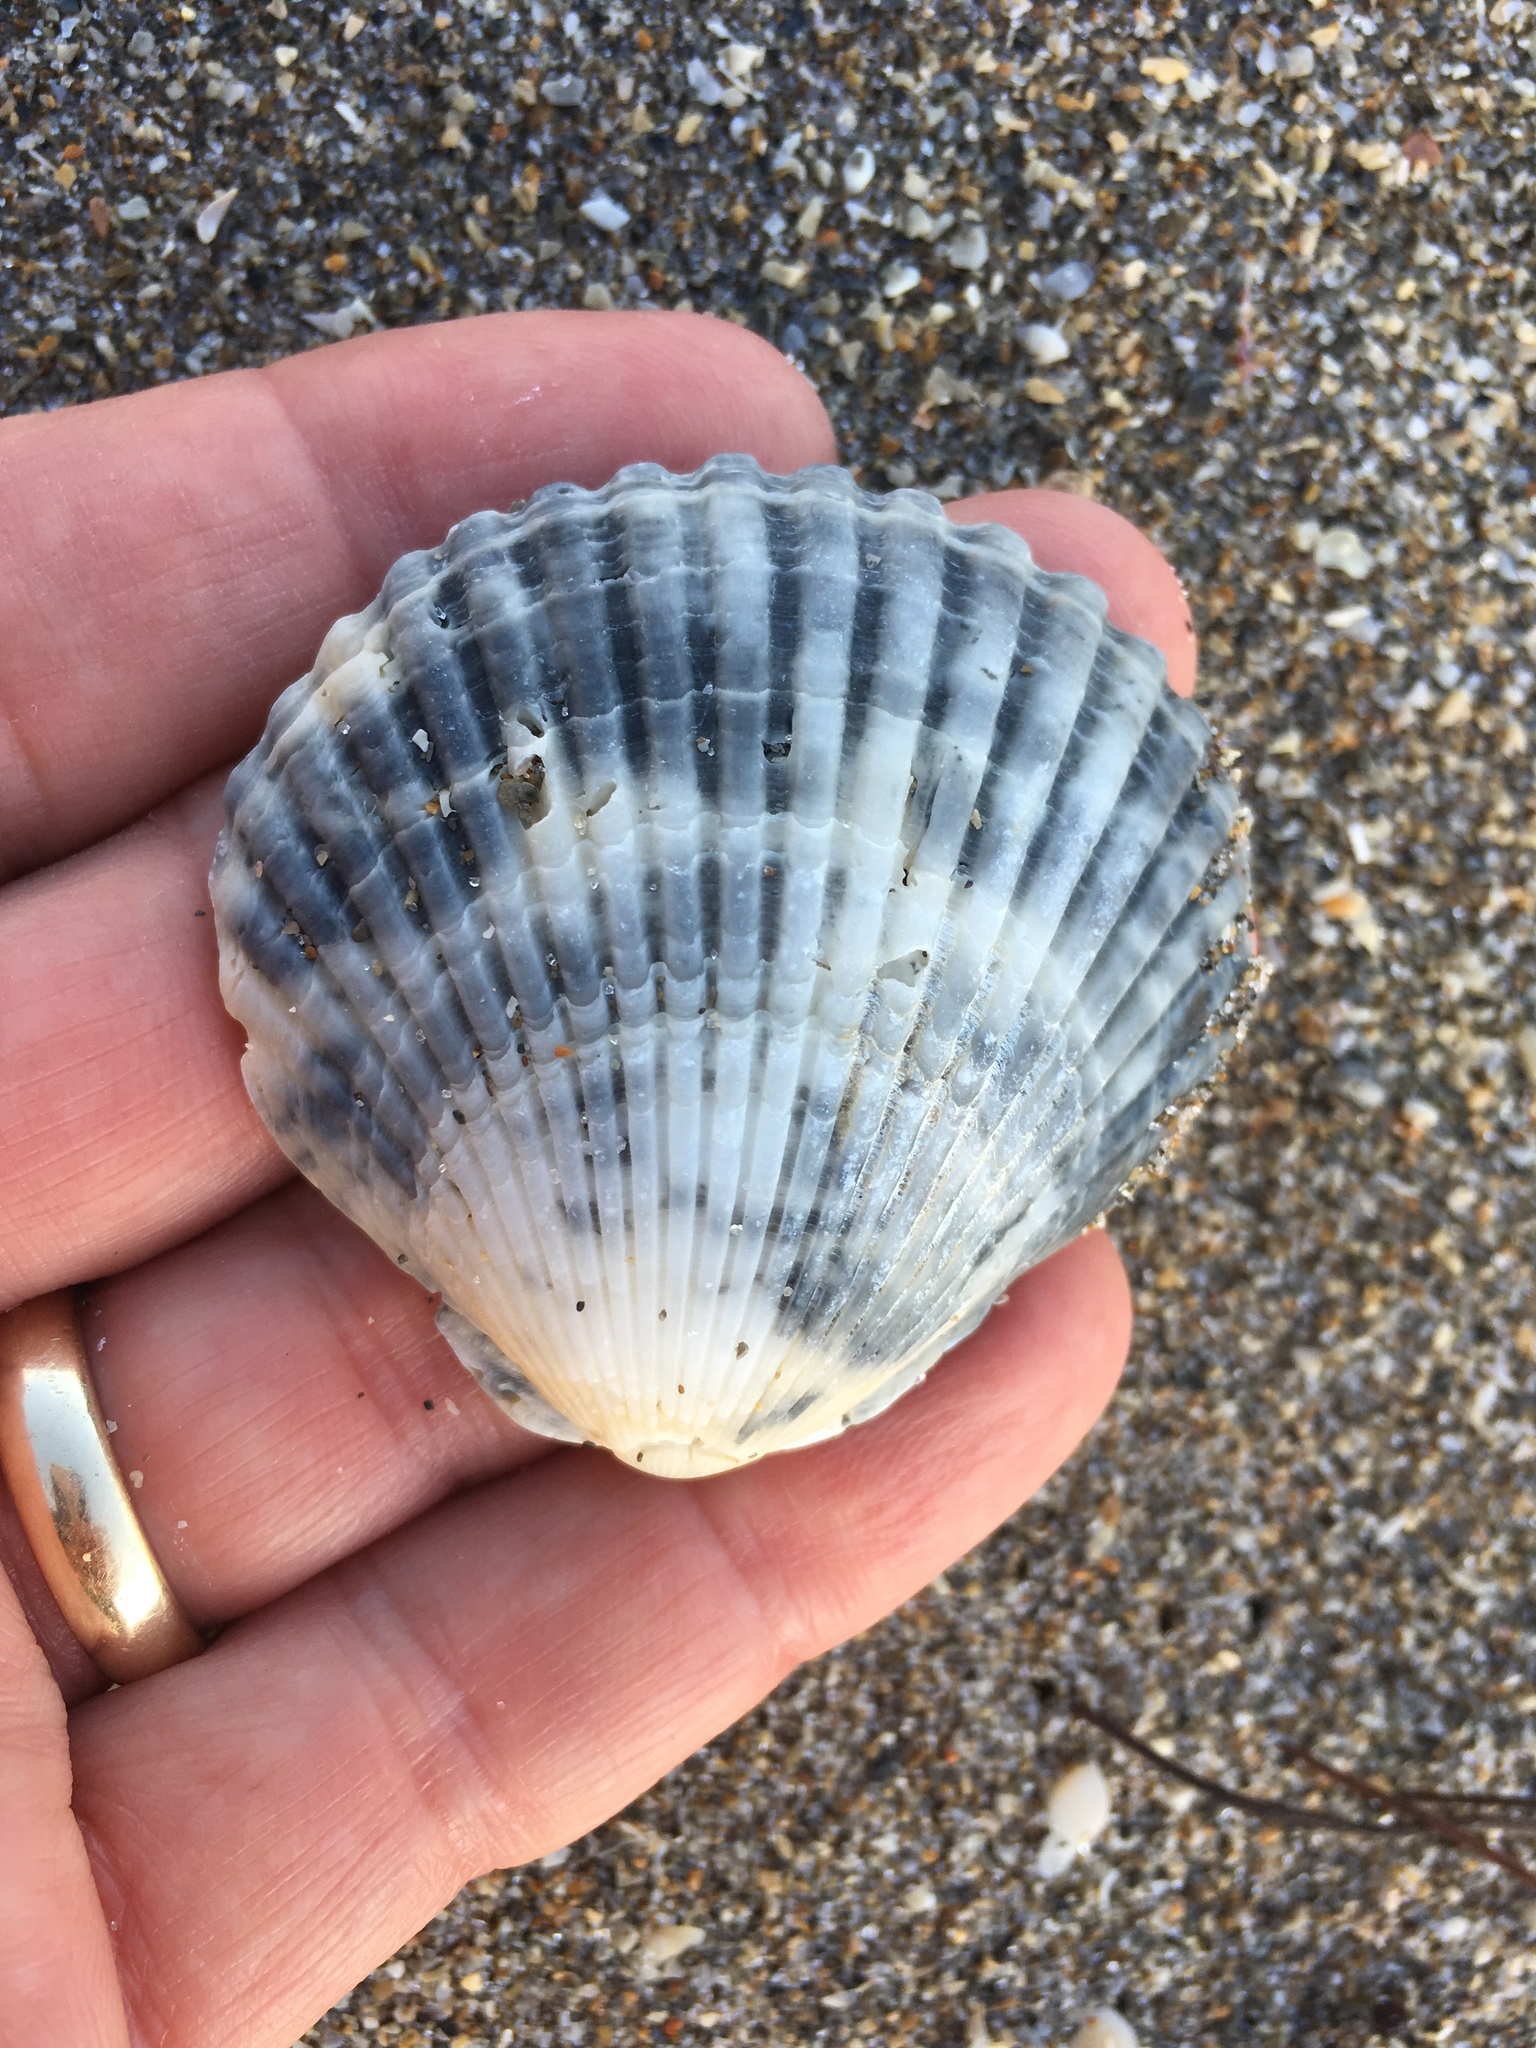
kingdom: Animalia
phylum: Mollusca
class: Bivalvia
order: Pectinida
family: Pectinidae
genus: Argopecten
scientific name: Argopecten gibbus
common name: Atlantic calico scallop
